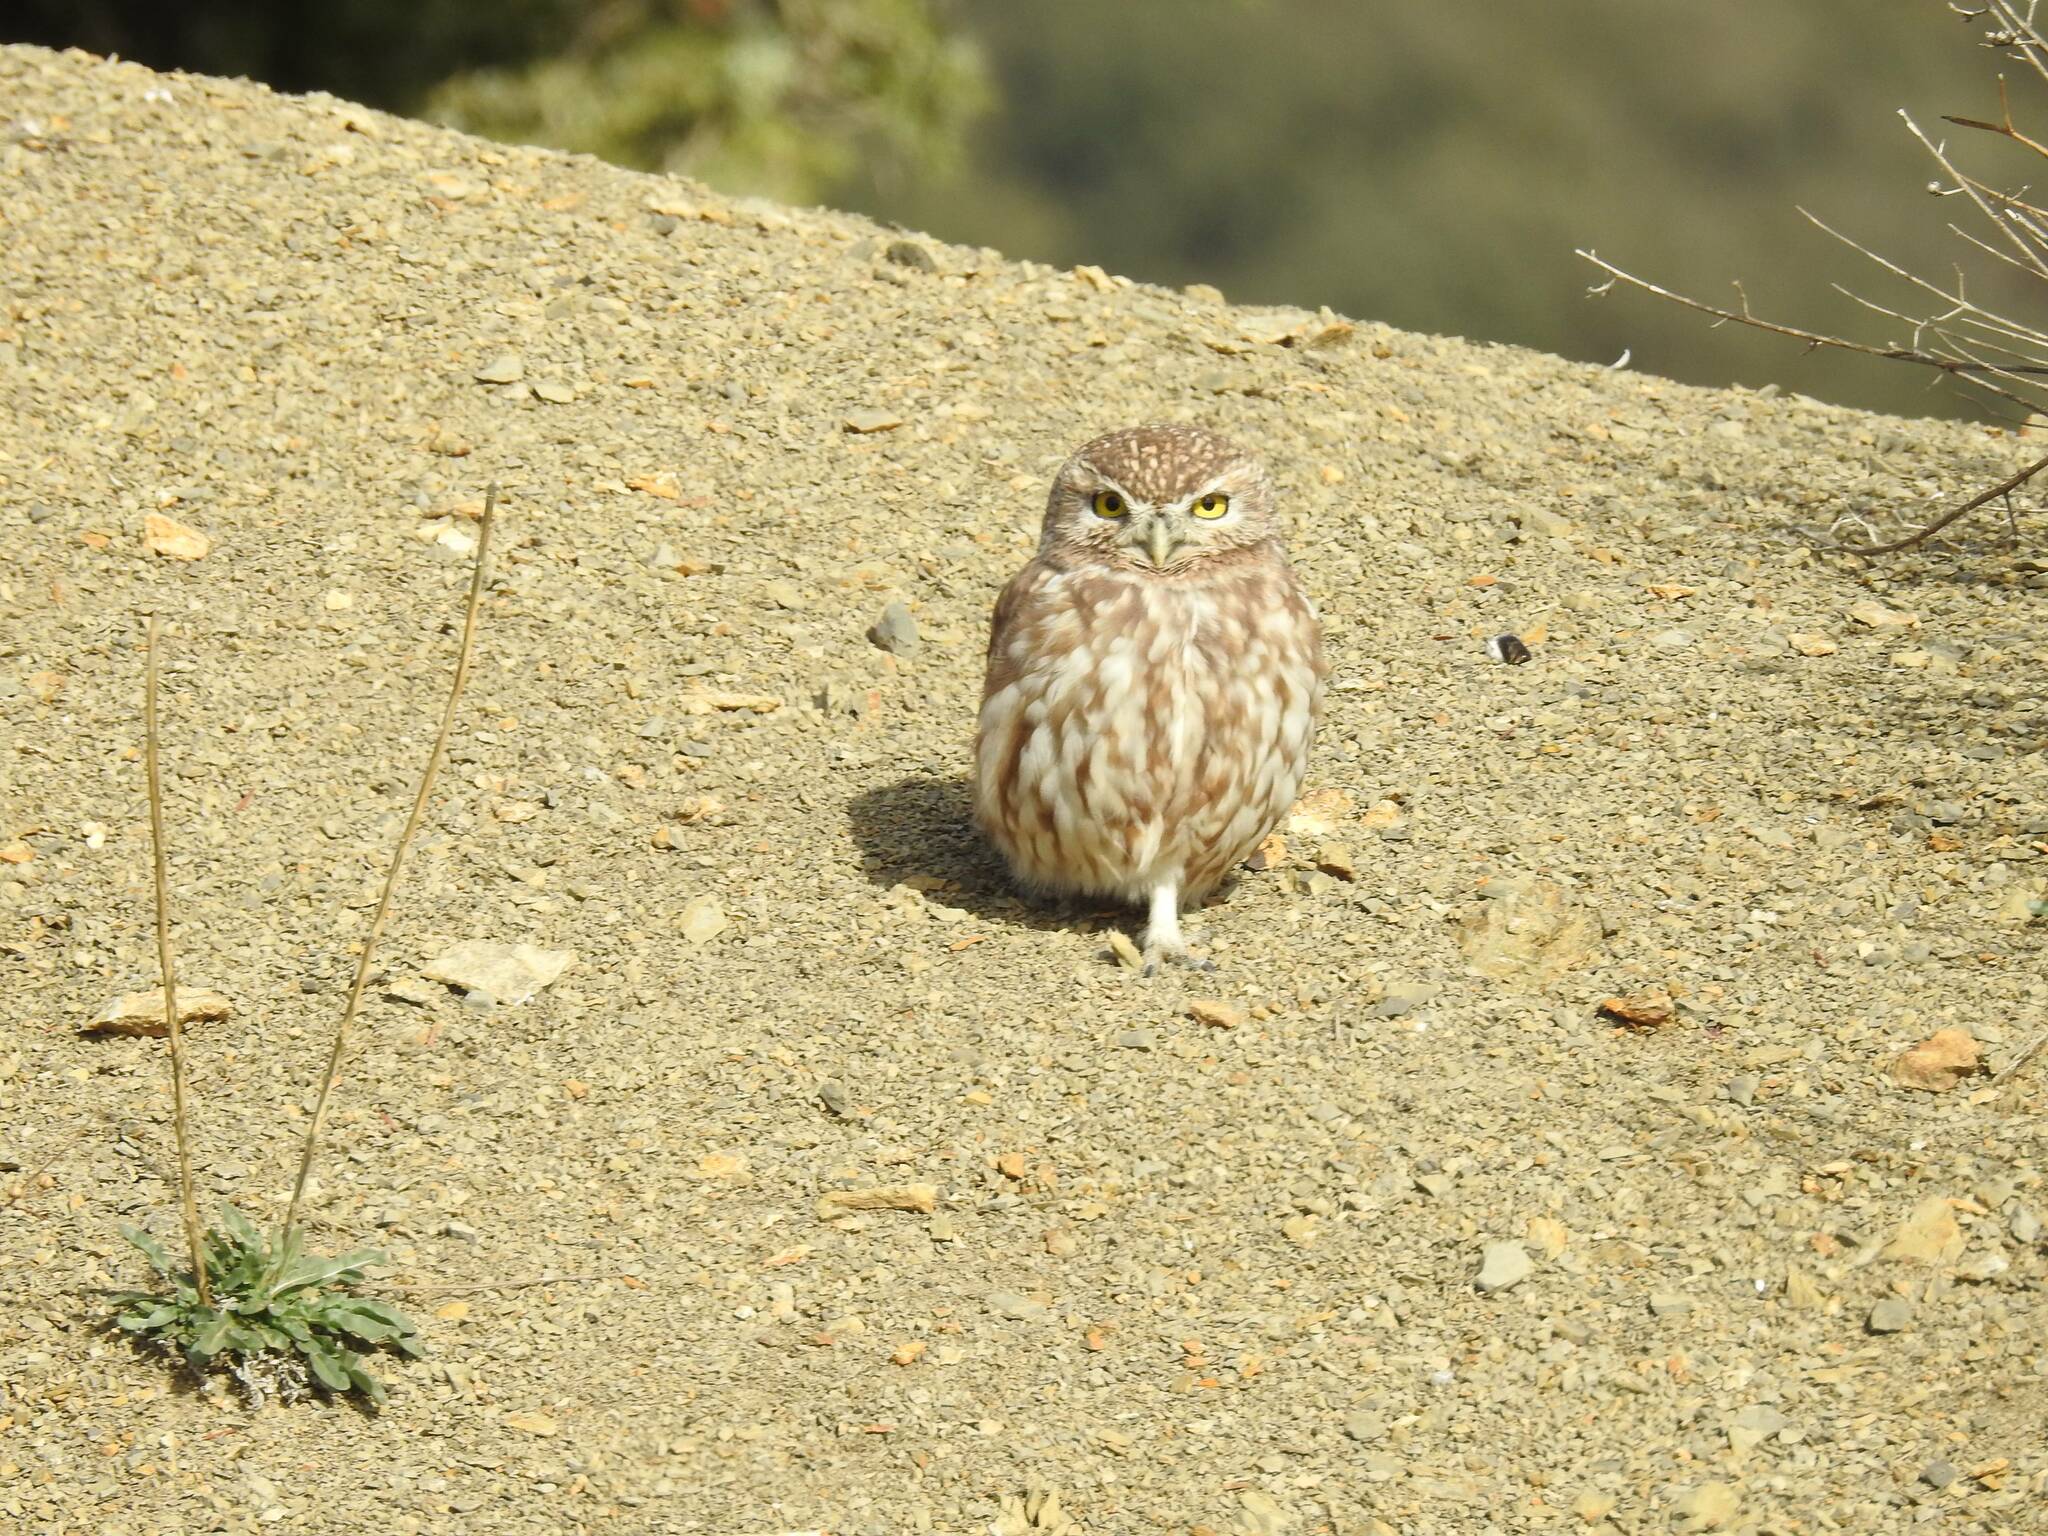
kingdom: Animalia
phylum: Chordata
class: Aves
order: Strigiformes
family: Strigidae
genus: Athene
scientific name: Athene noctua
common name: Little owl
